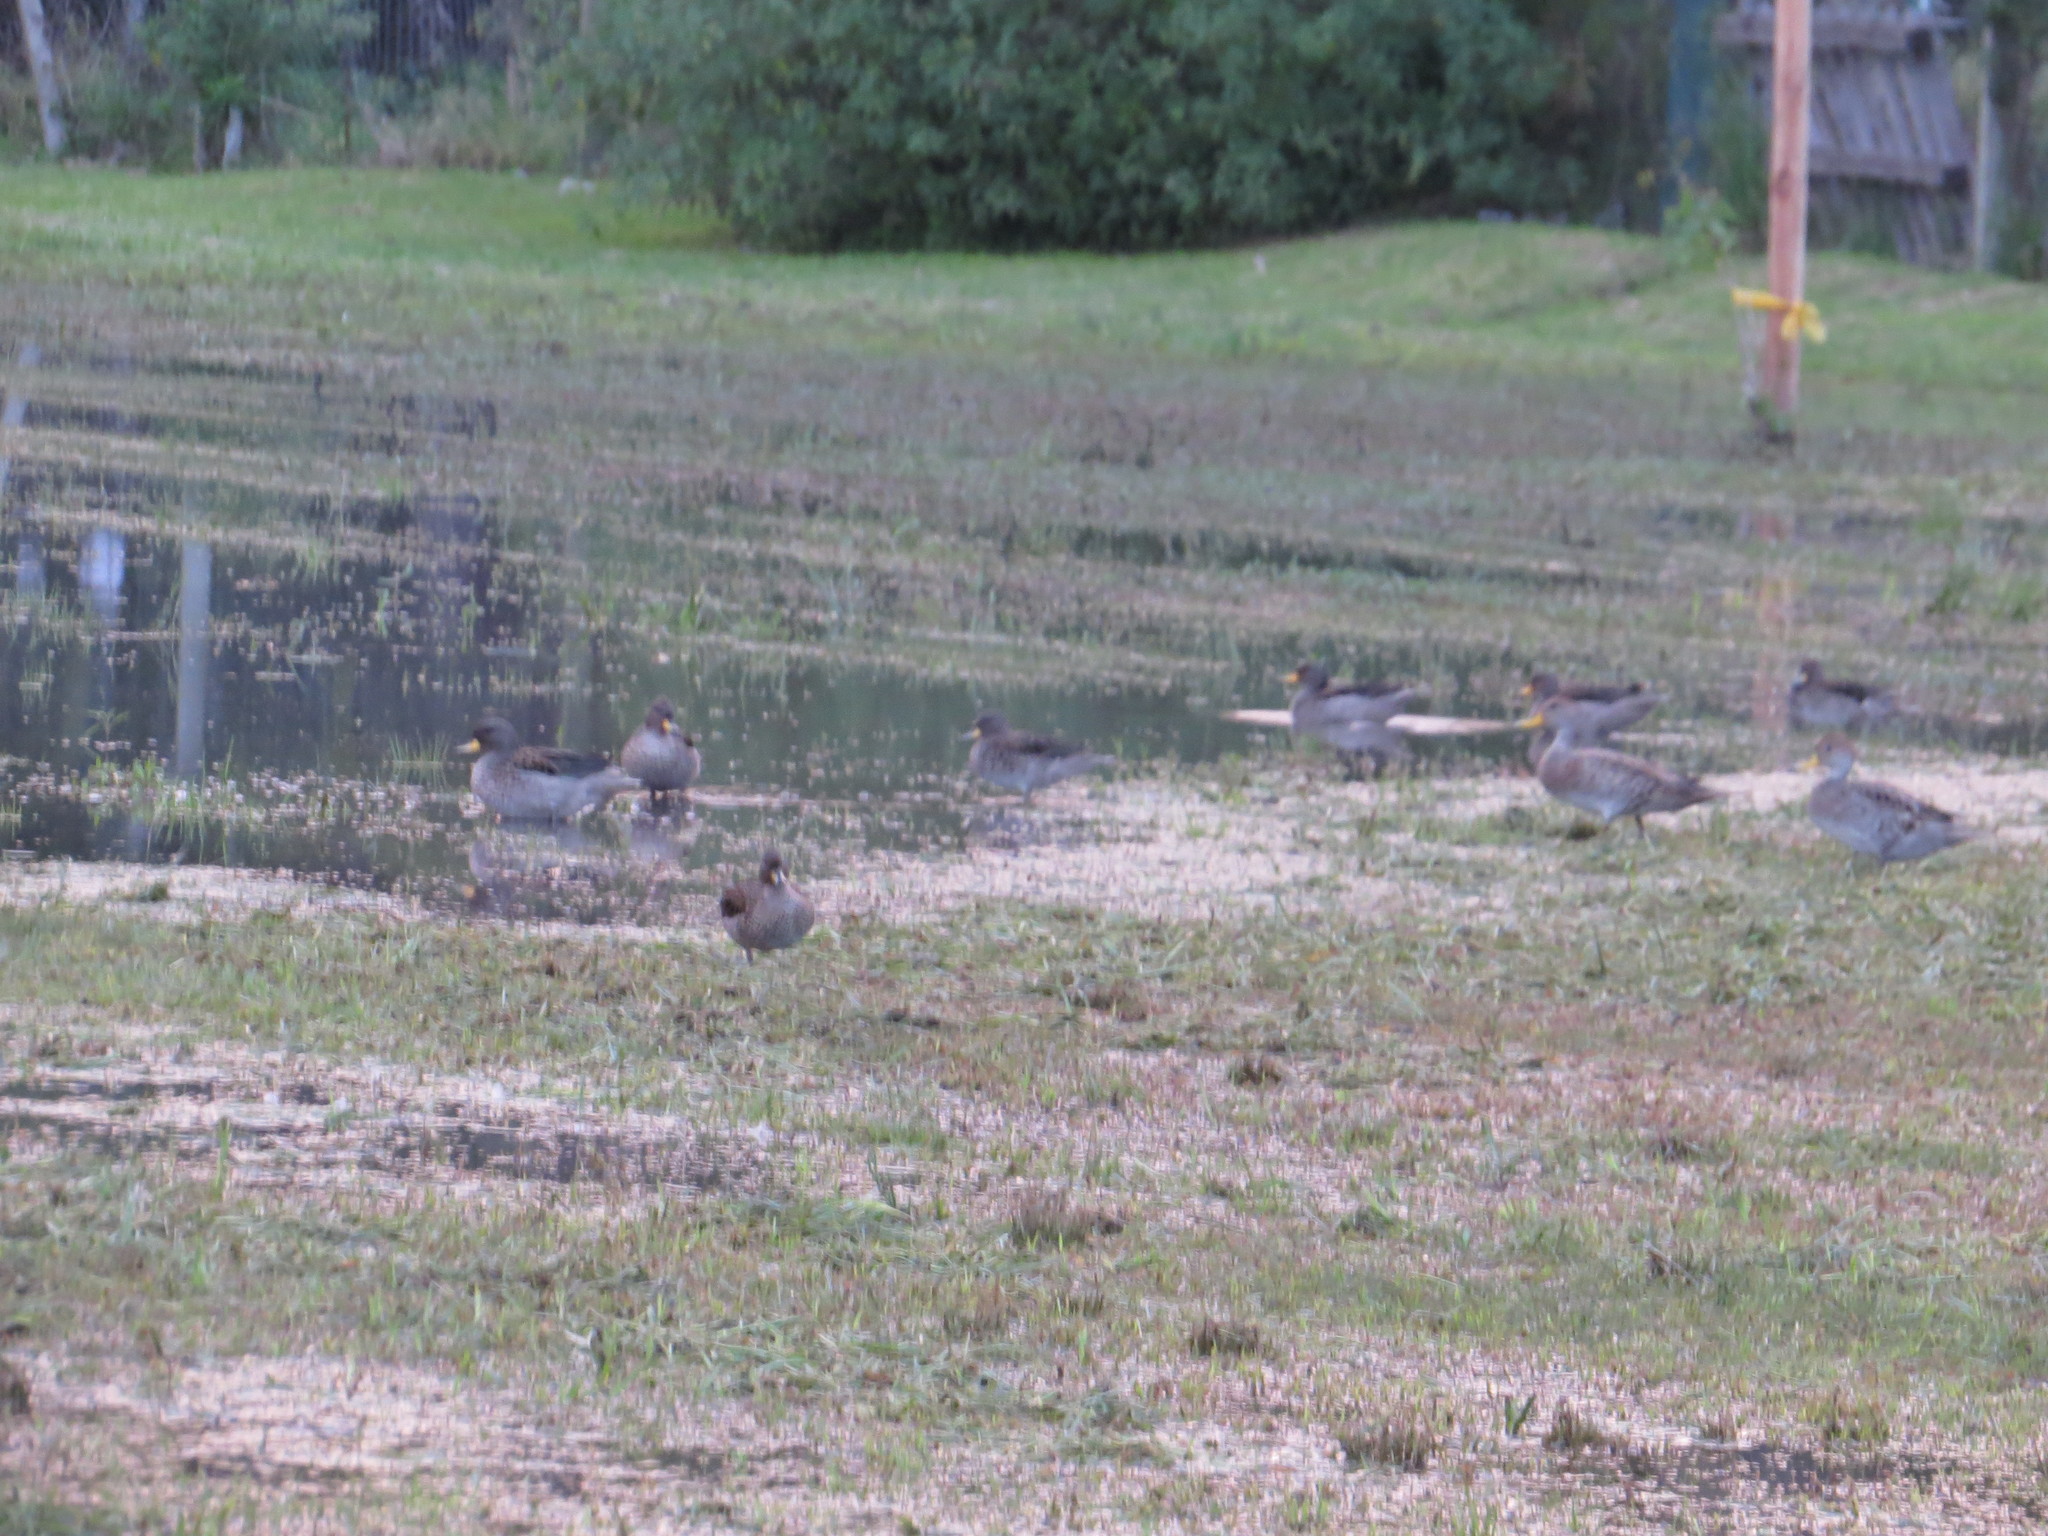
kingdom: Animalia
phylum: Chordata
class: Aves
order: Anseriformes
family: Anatidae
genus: Anas
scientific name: Anas flavirostris
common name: Yellow-billed teal
